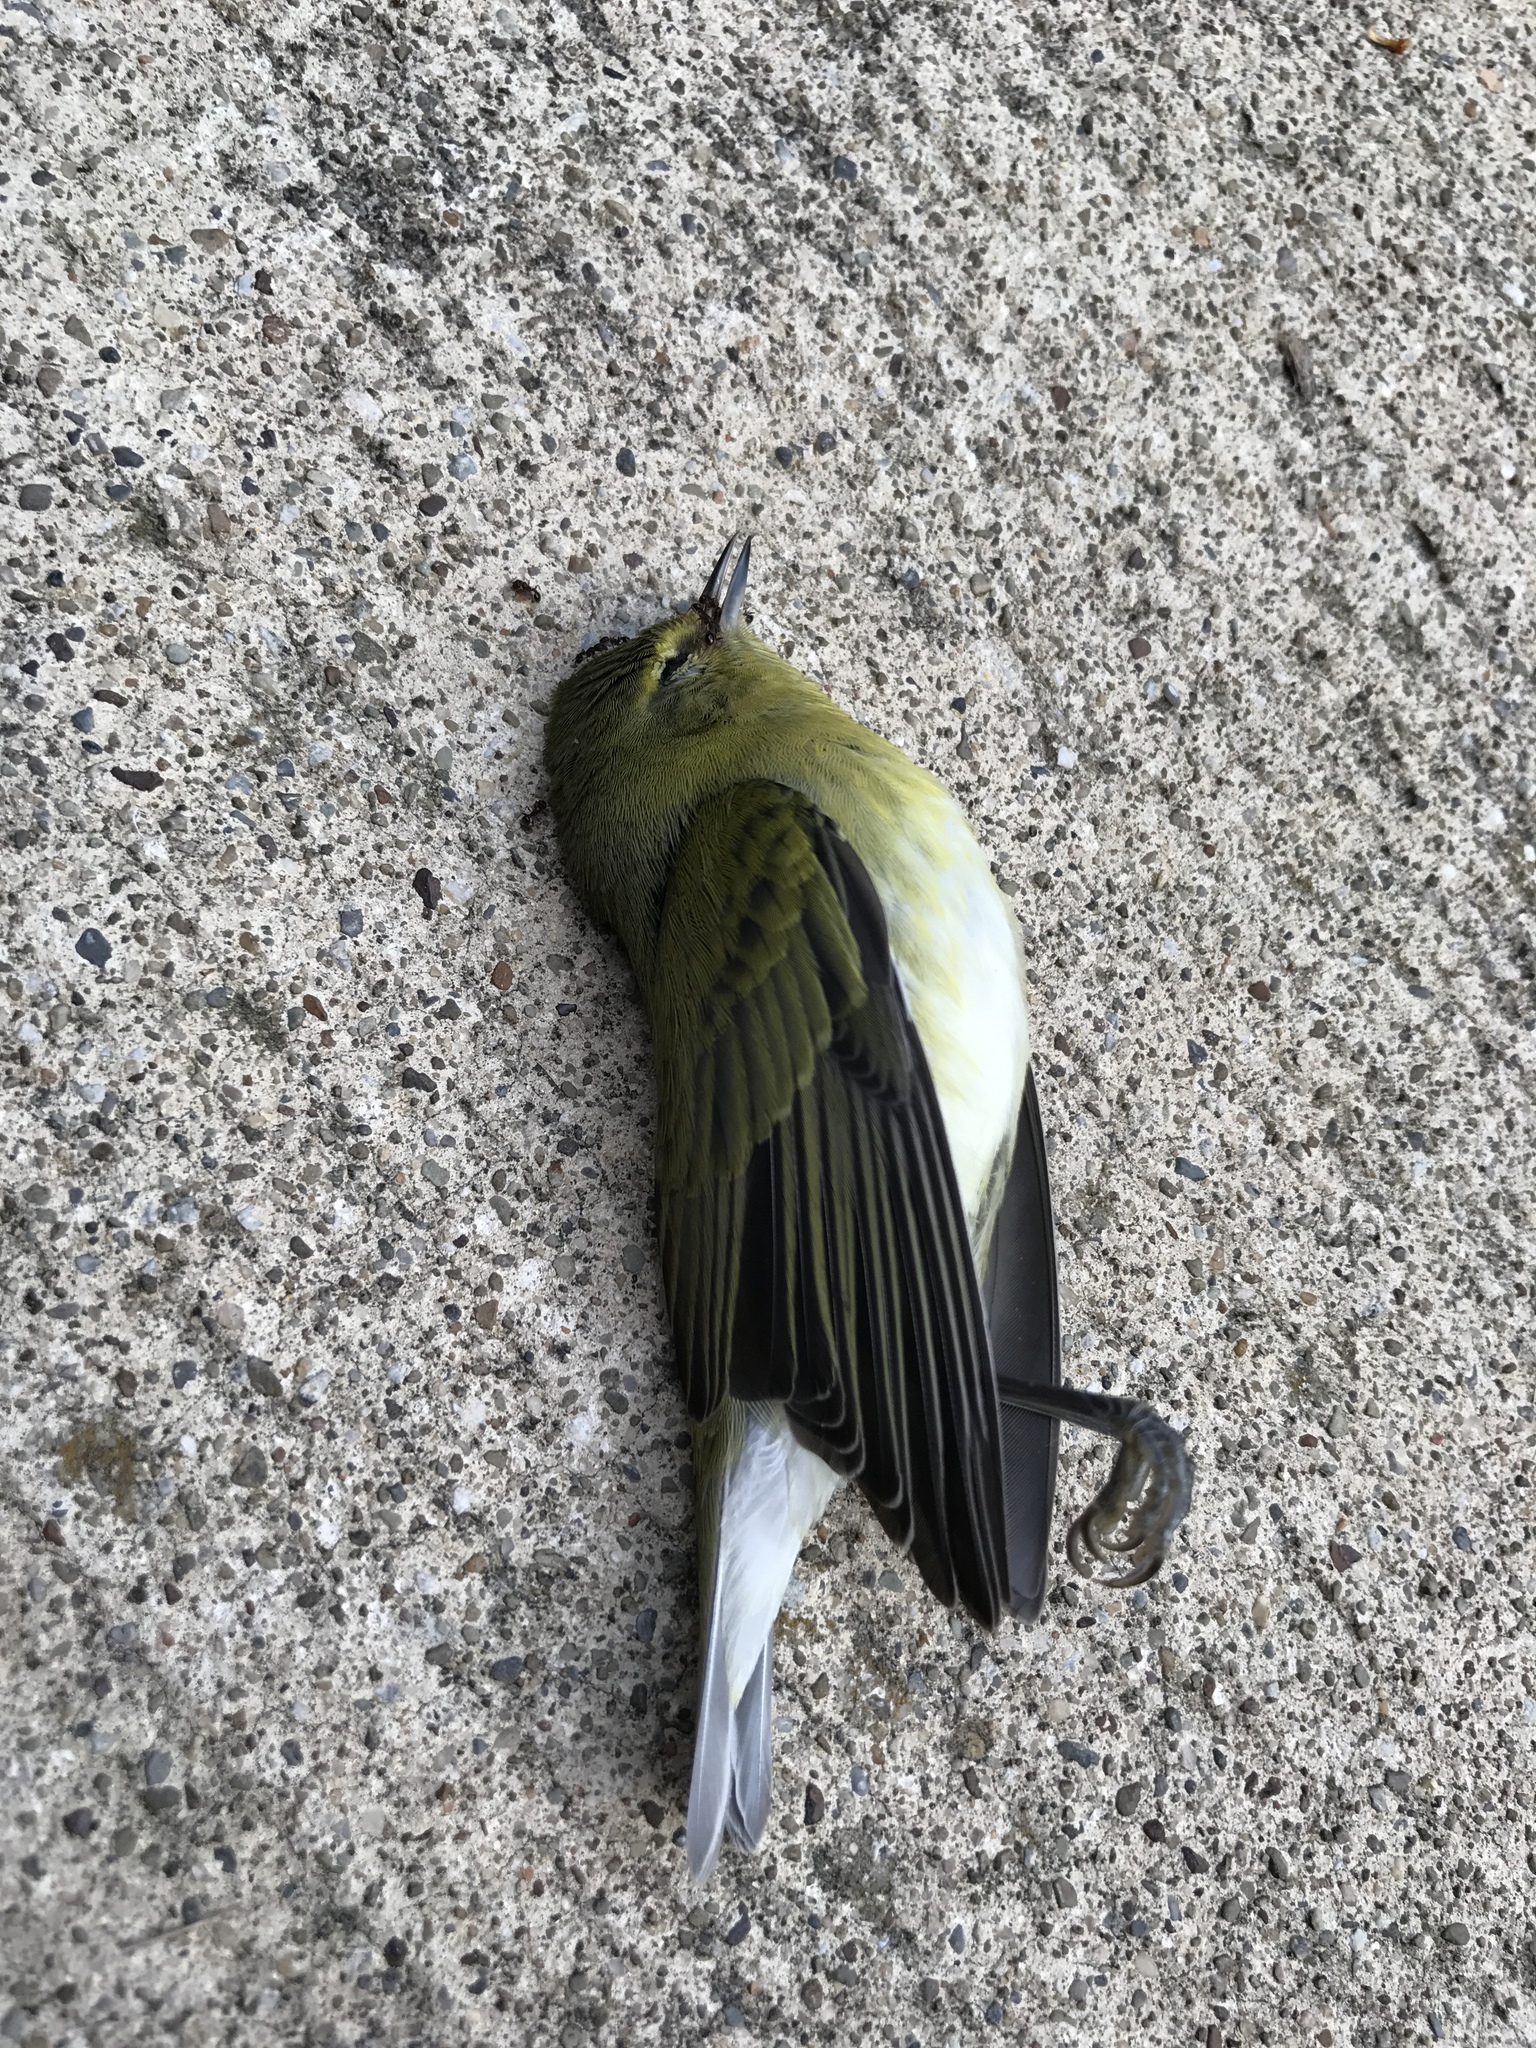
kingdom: Animalia
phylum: Chordata
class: Aves
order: Passeriformes
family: Parulidae
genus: Leiothlypis
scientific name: Leiothlypis peregrina
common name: Tennessee warbler
